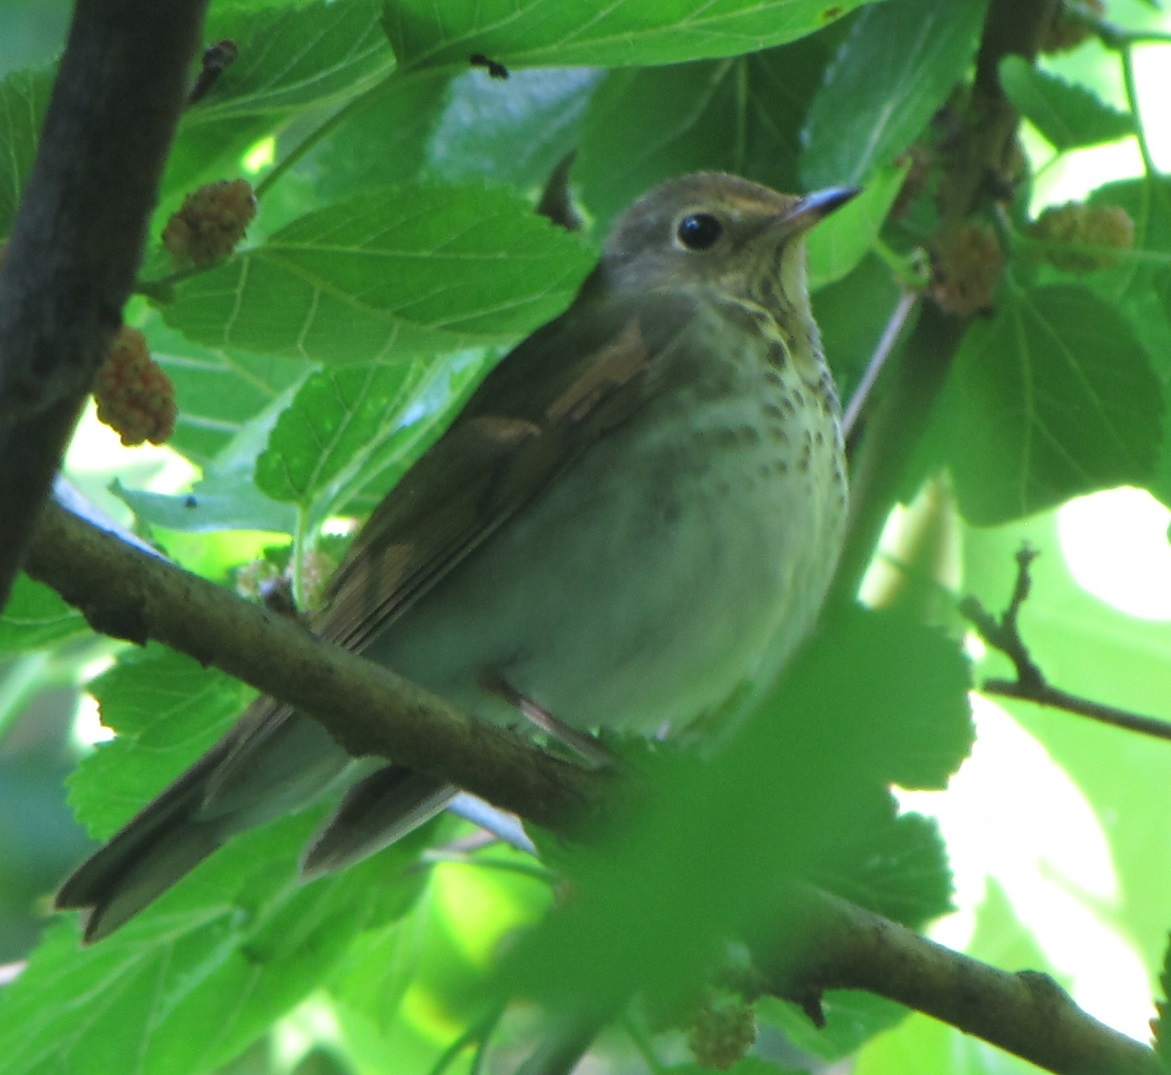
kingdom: Animalia
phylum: Chordata
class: Aves
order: Passeriformes
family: Turdidae
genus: Catharus
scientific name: Catharus ustulatus
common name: Swainson's thrush
